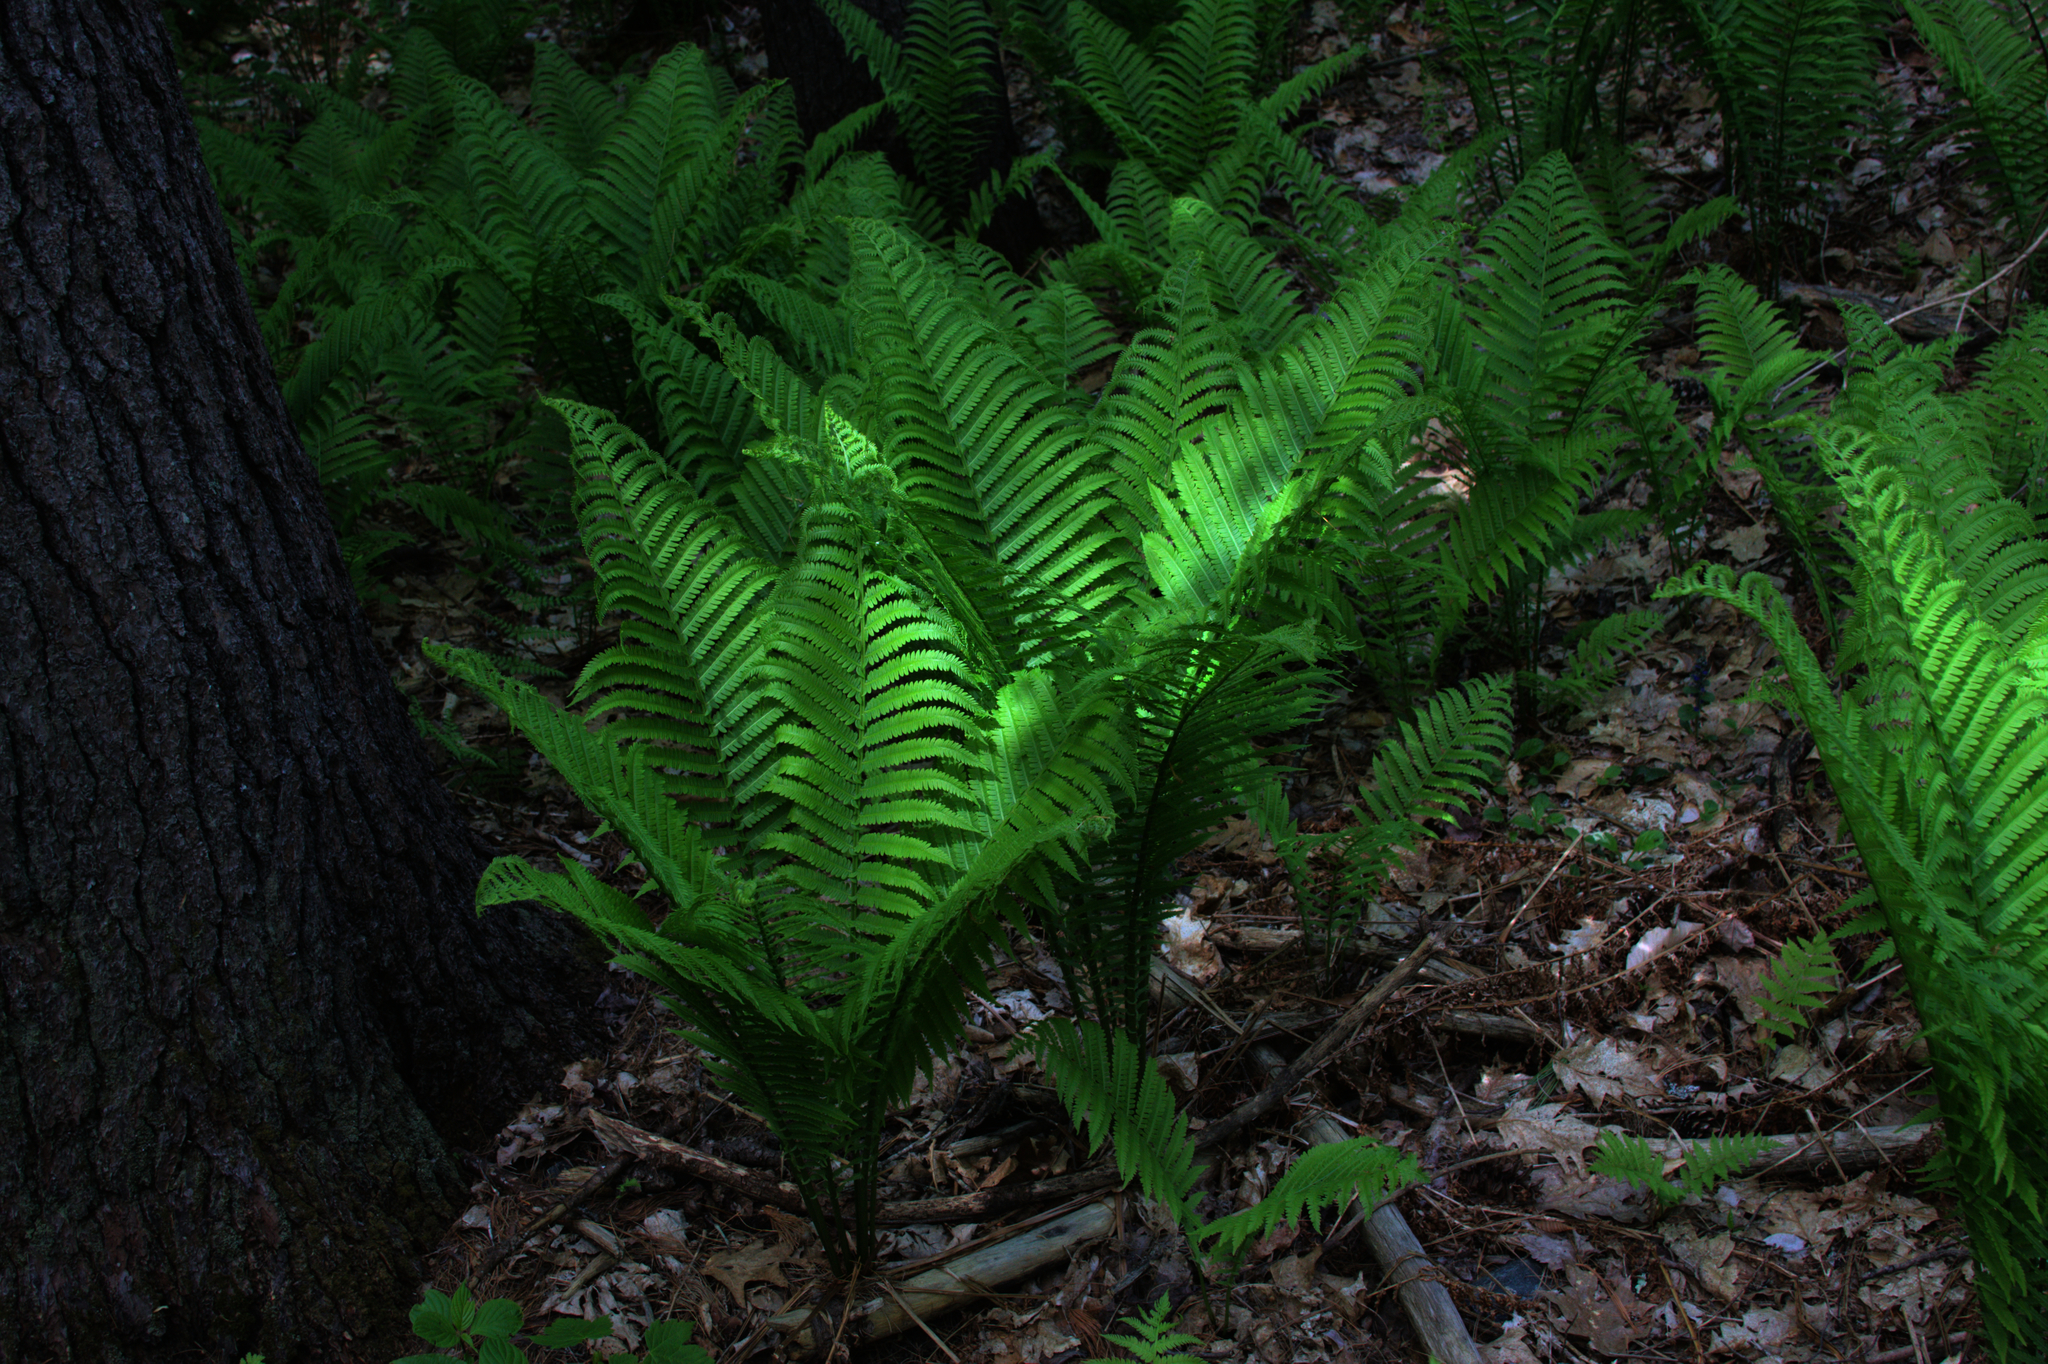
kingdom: Plantae
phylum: Tracheophyta
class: Polypodiopsida
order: Polypodiales
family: Onocleaceae
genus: Matteuccia
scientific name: Matteuccia struthiopteris
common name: Ostrich fern
